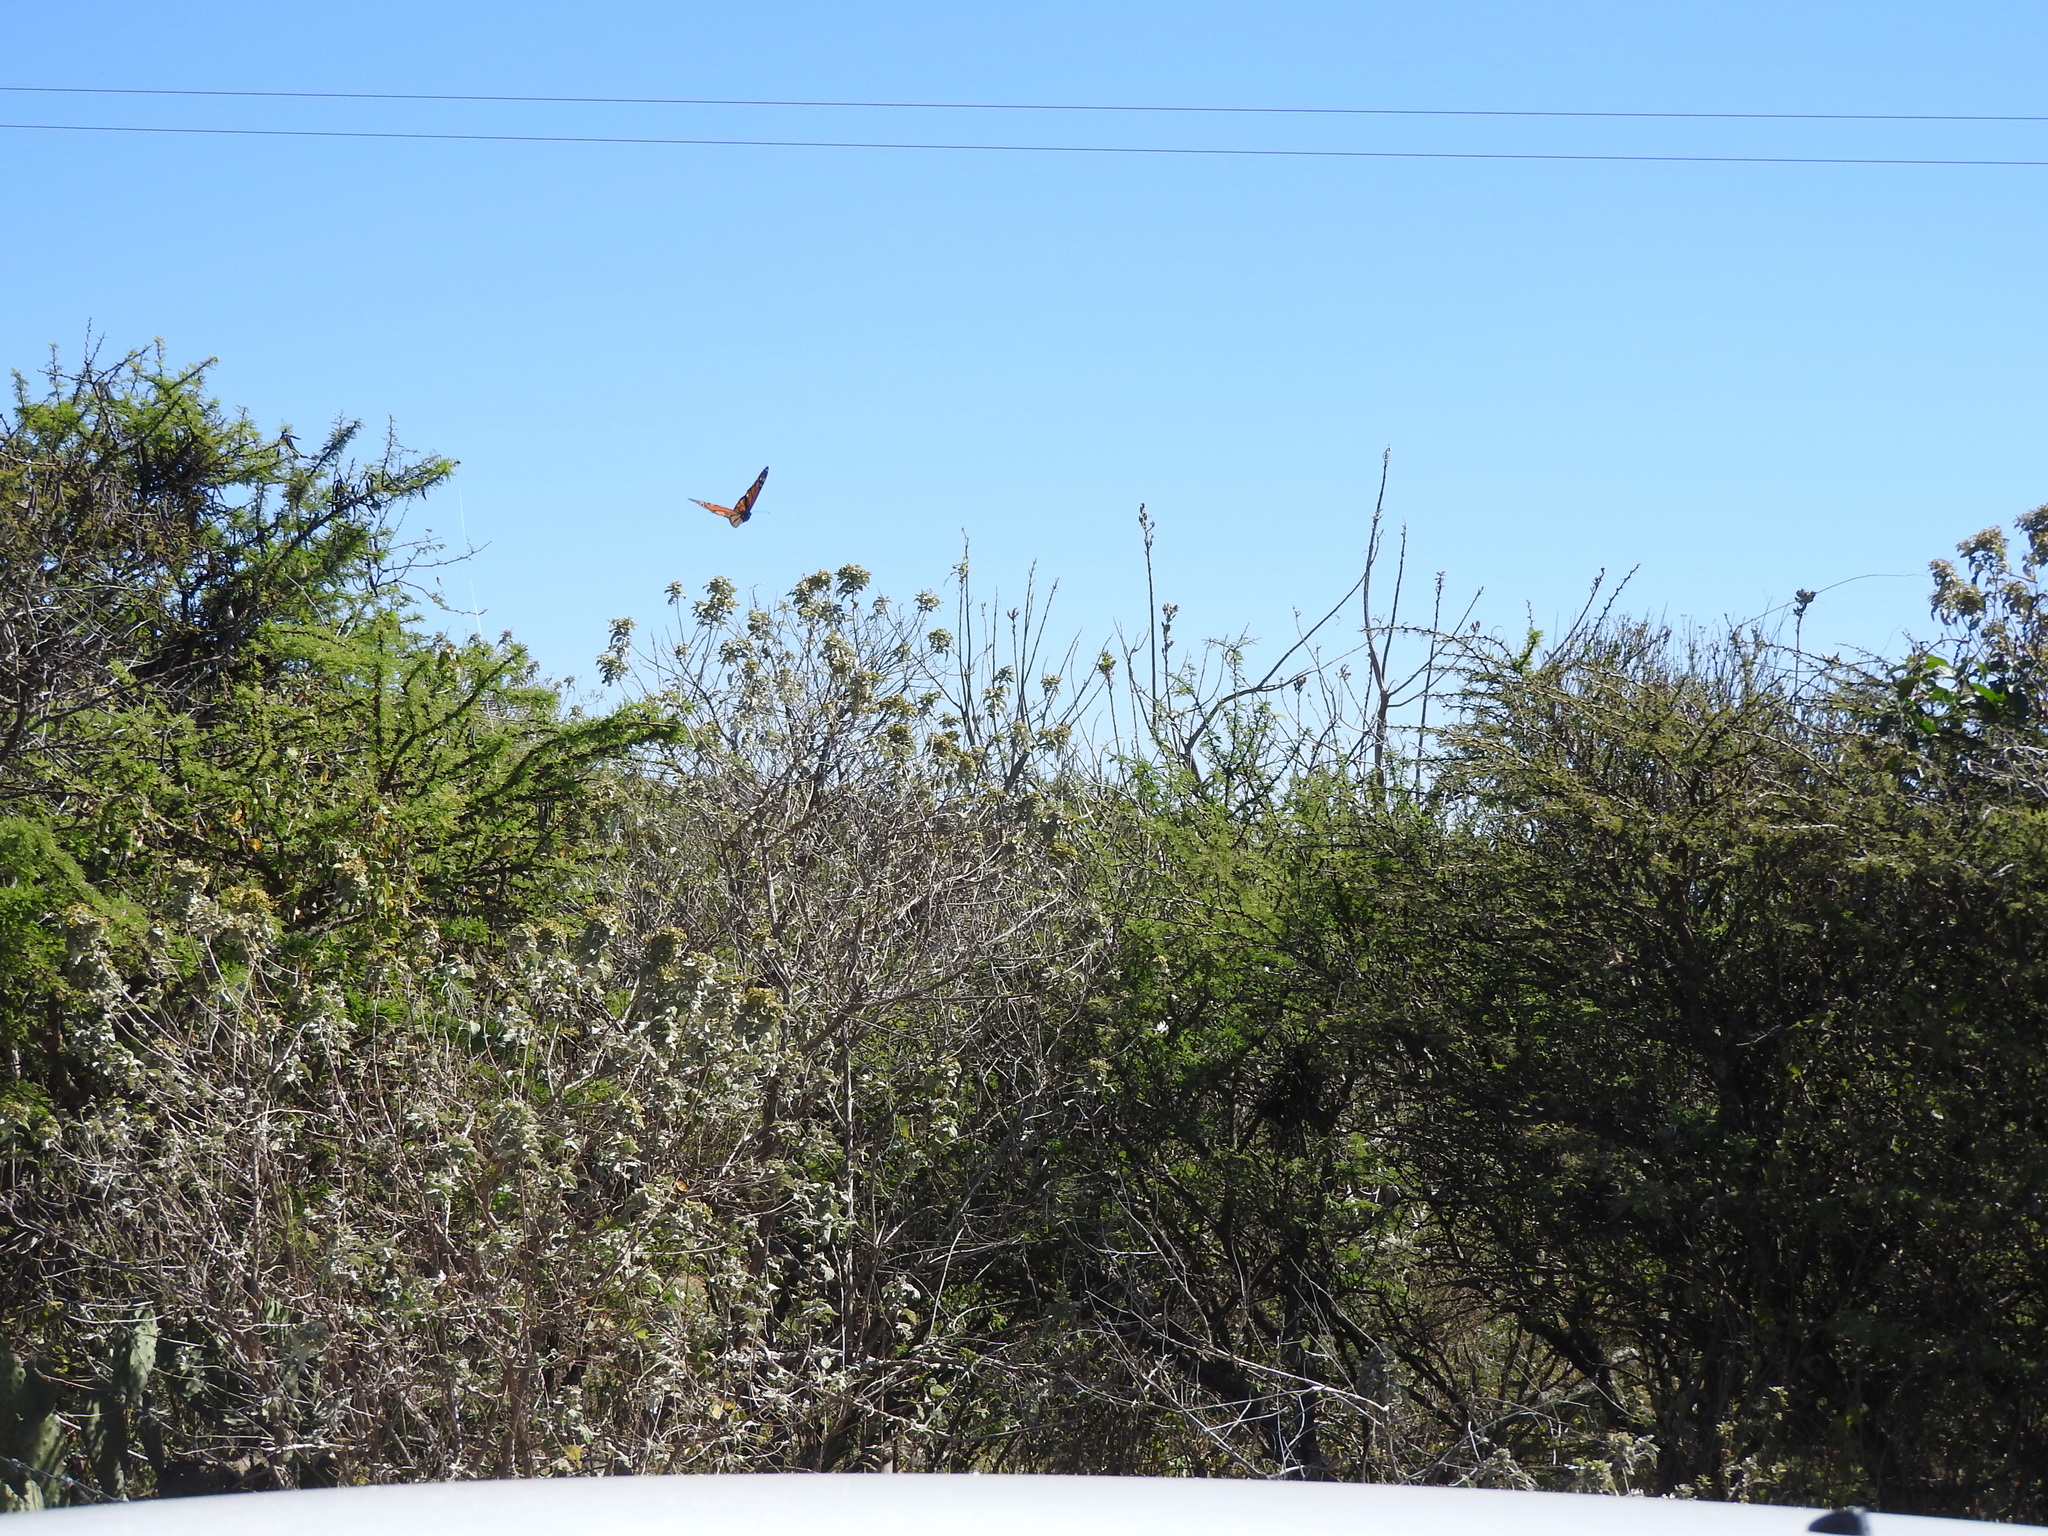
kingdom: Animalia
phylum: Arthropoda
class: Insecta
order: Lepidoptera
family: Nymphalidae
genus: Danaus
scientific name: Danaus plexippus
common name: Monarch
